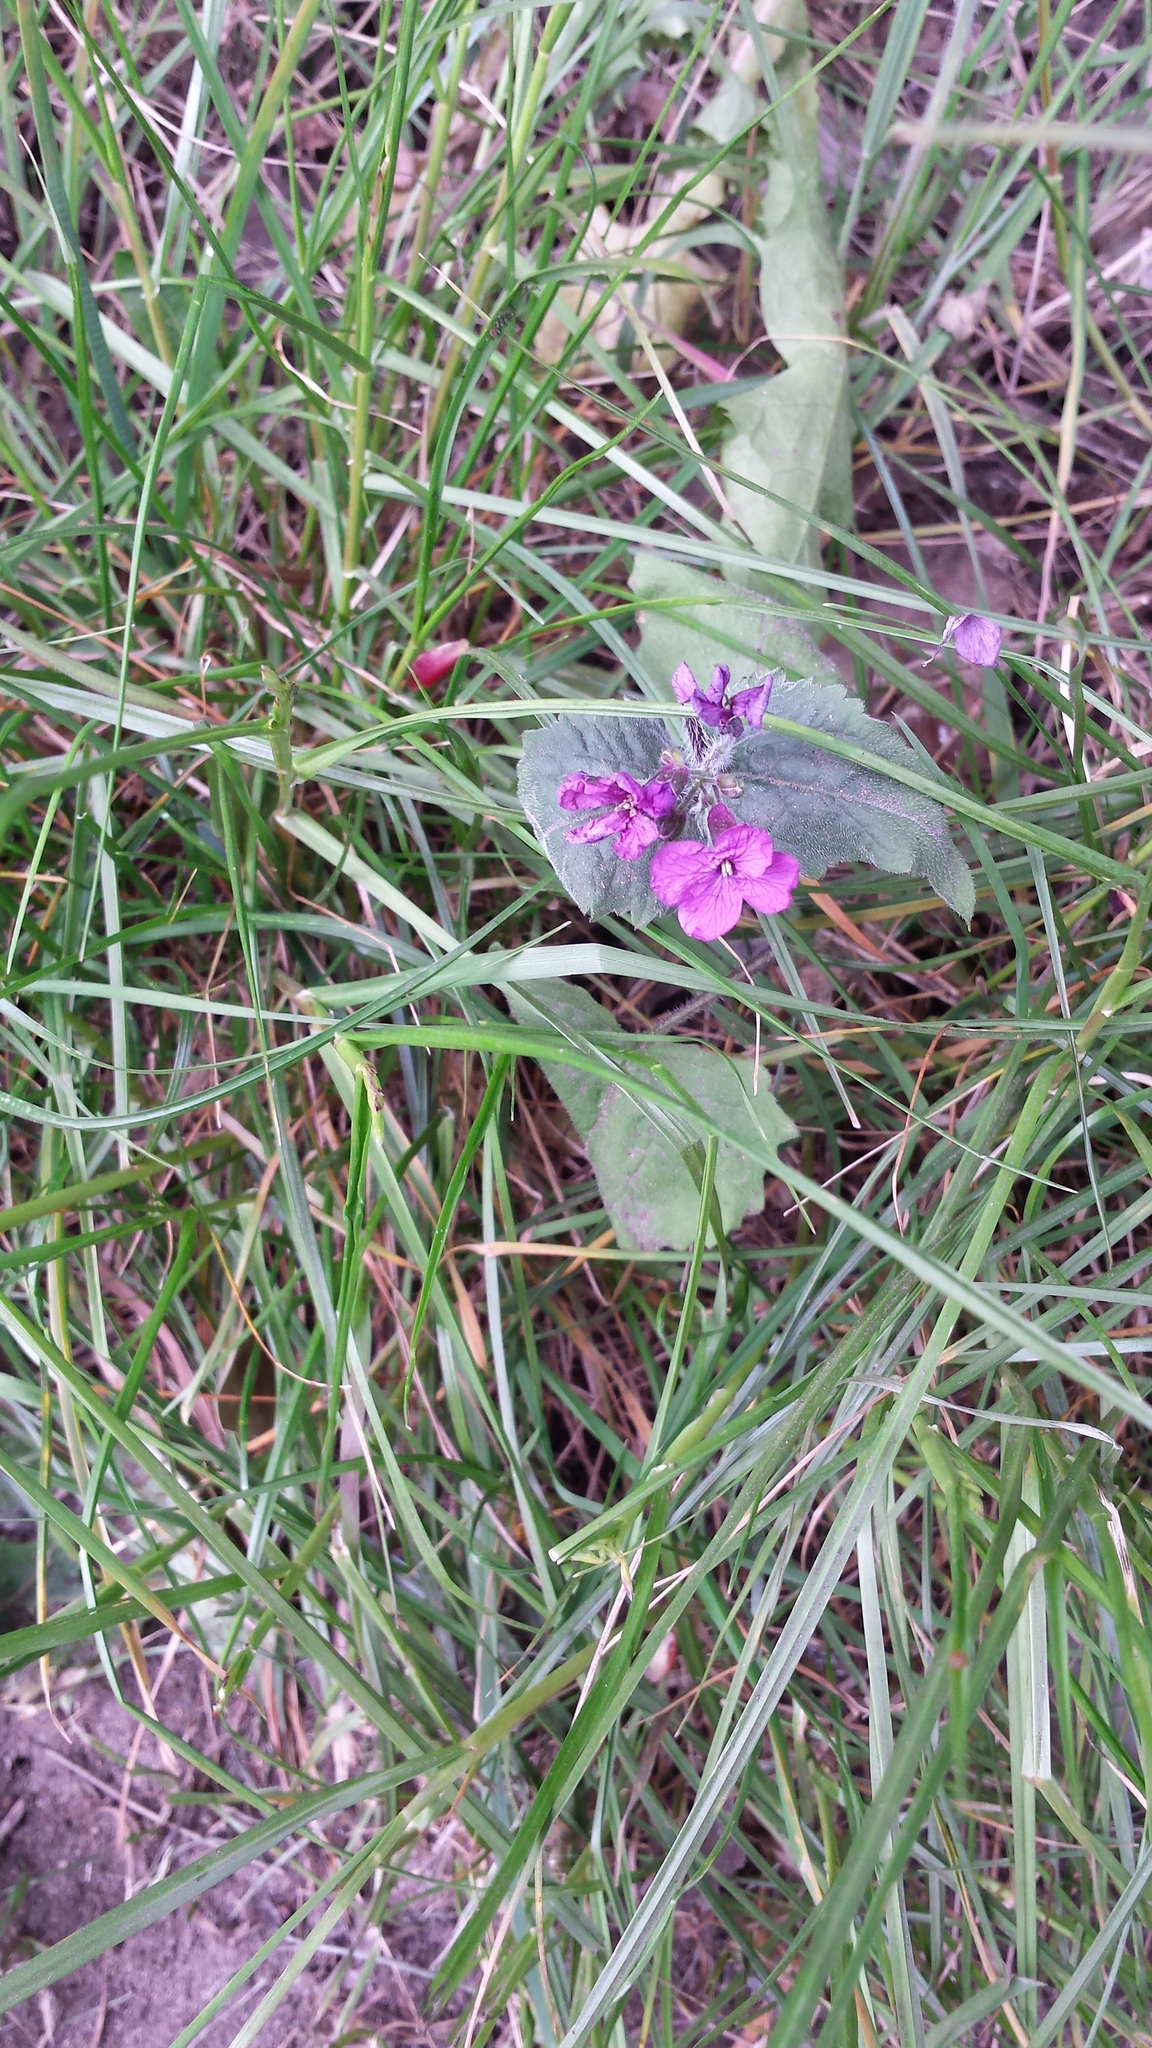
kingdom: Plantae
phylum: Tracheophyta
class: Magnoliopsida
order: Brassicales
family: Brassicaceae
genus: Lunaria
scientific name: Lunaria annua
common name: Honesty
